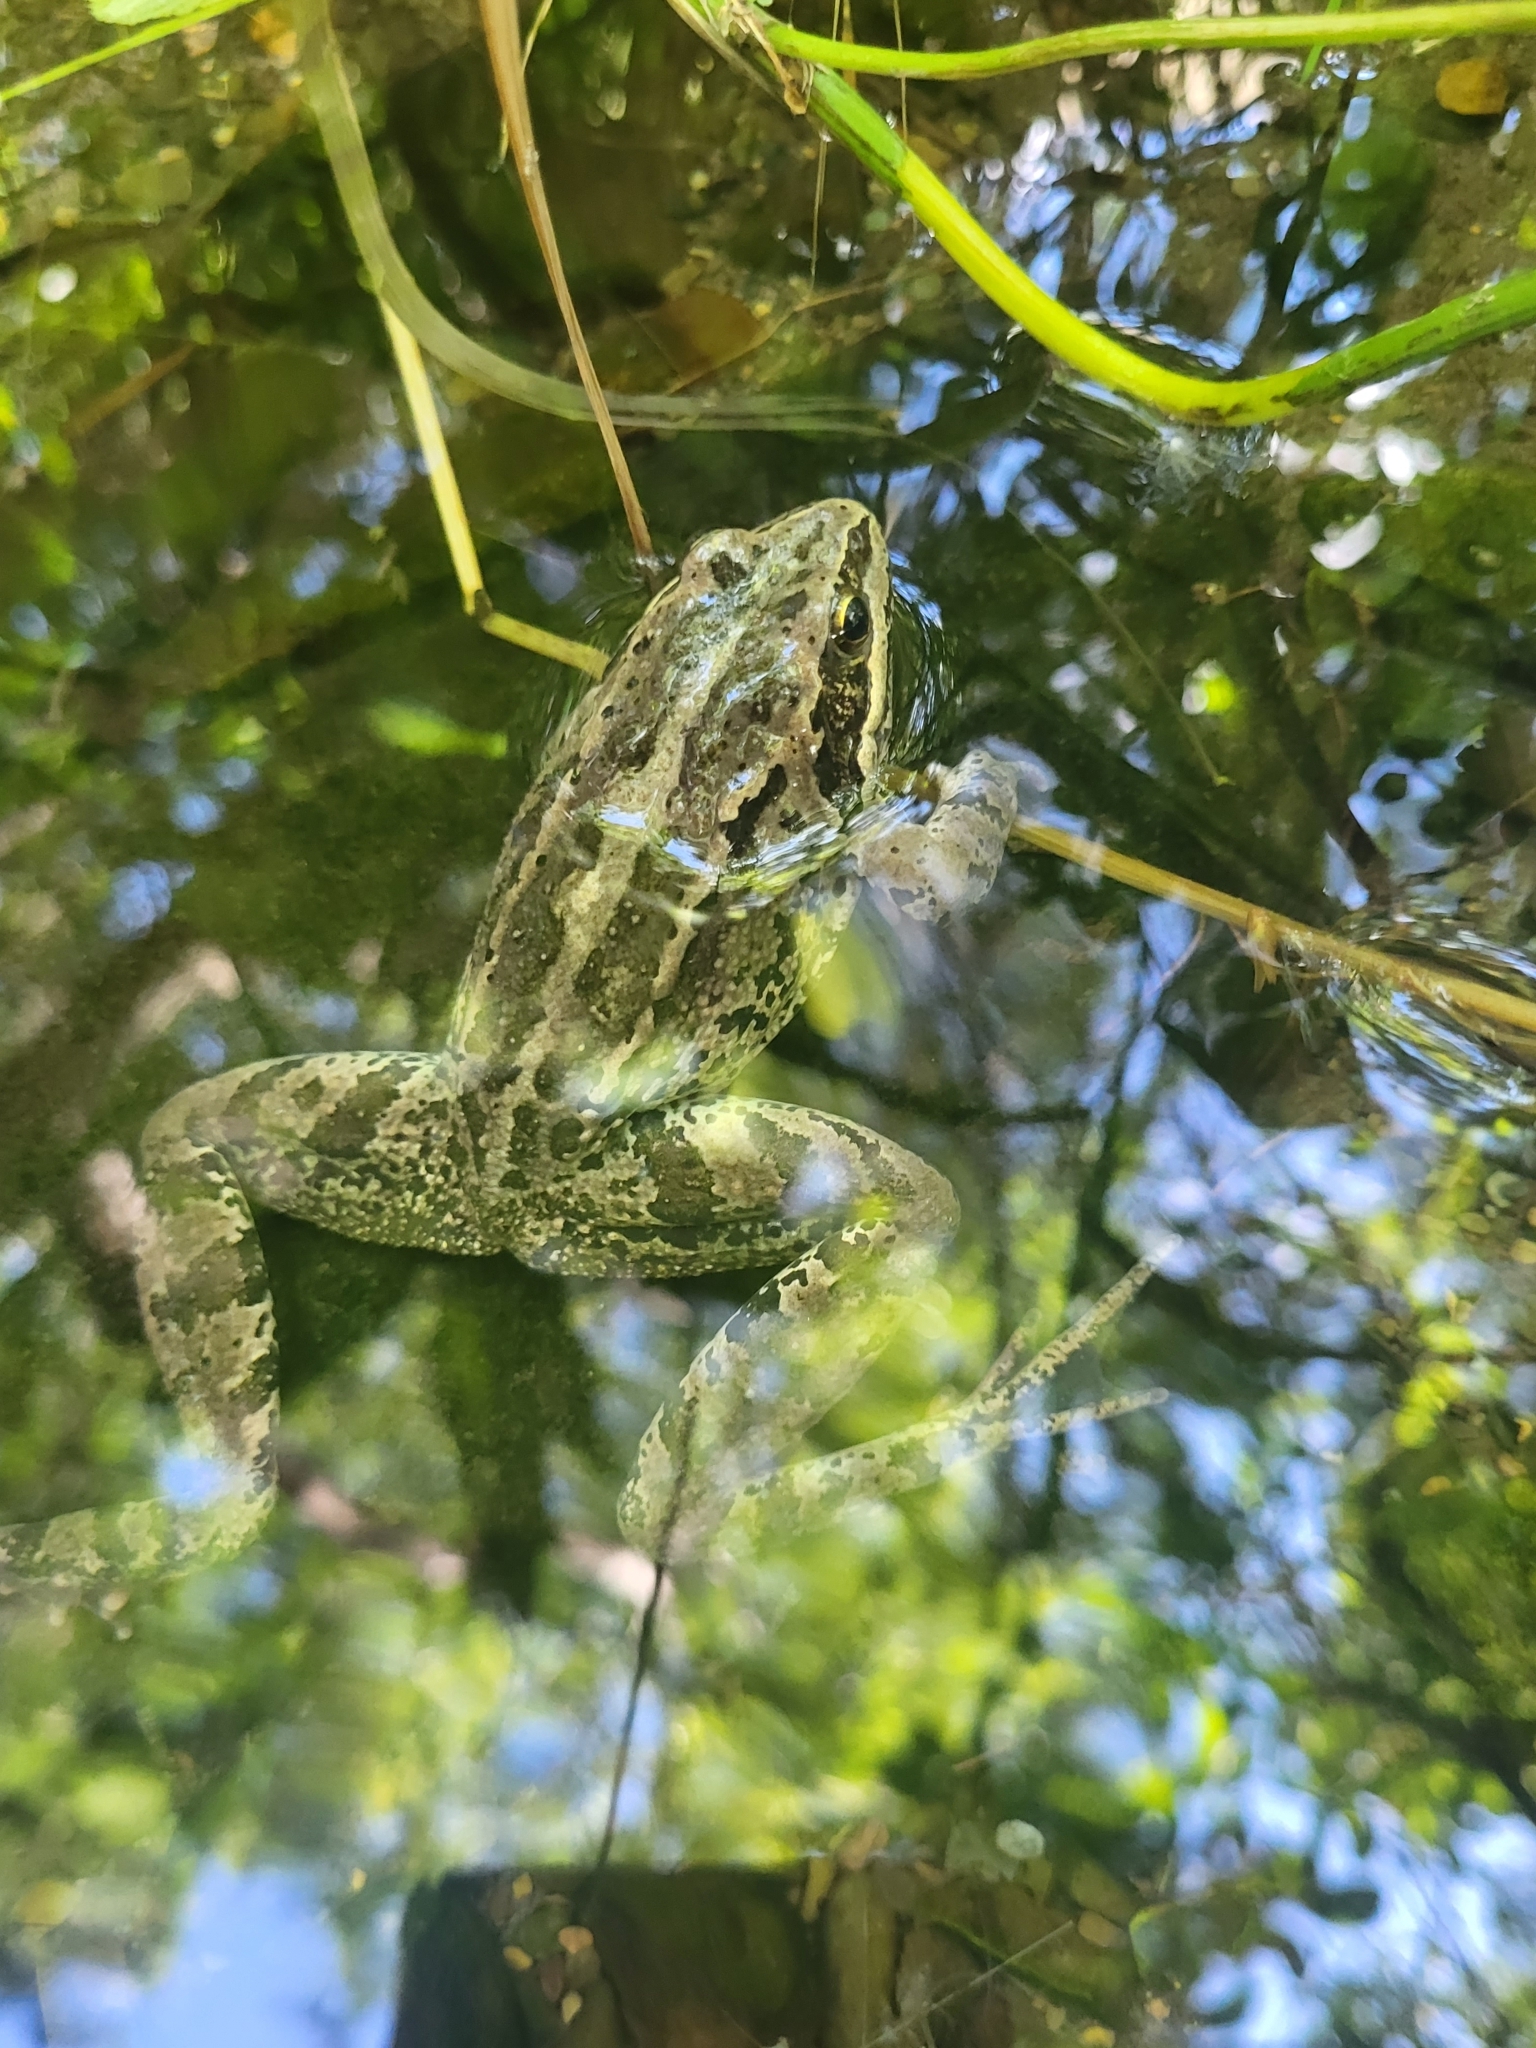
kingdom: Animalia
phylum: Chordata
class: Amphibia
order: Anura
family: Ranidae
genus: Rana
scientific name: Rana macrocnemis
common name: Banded frog
